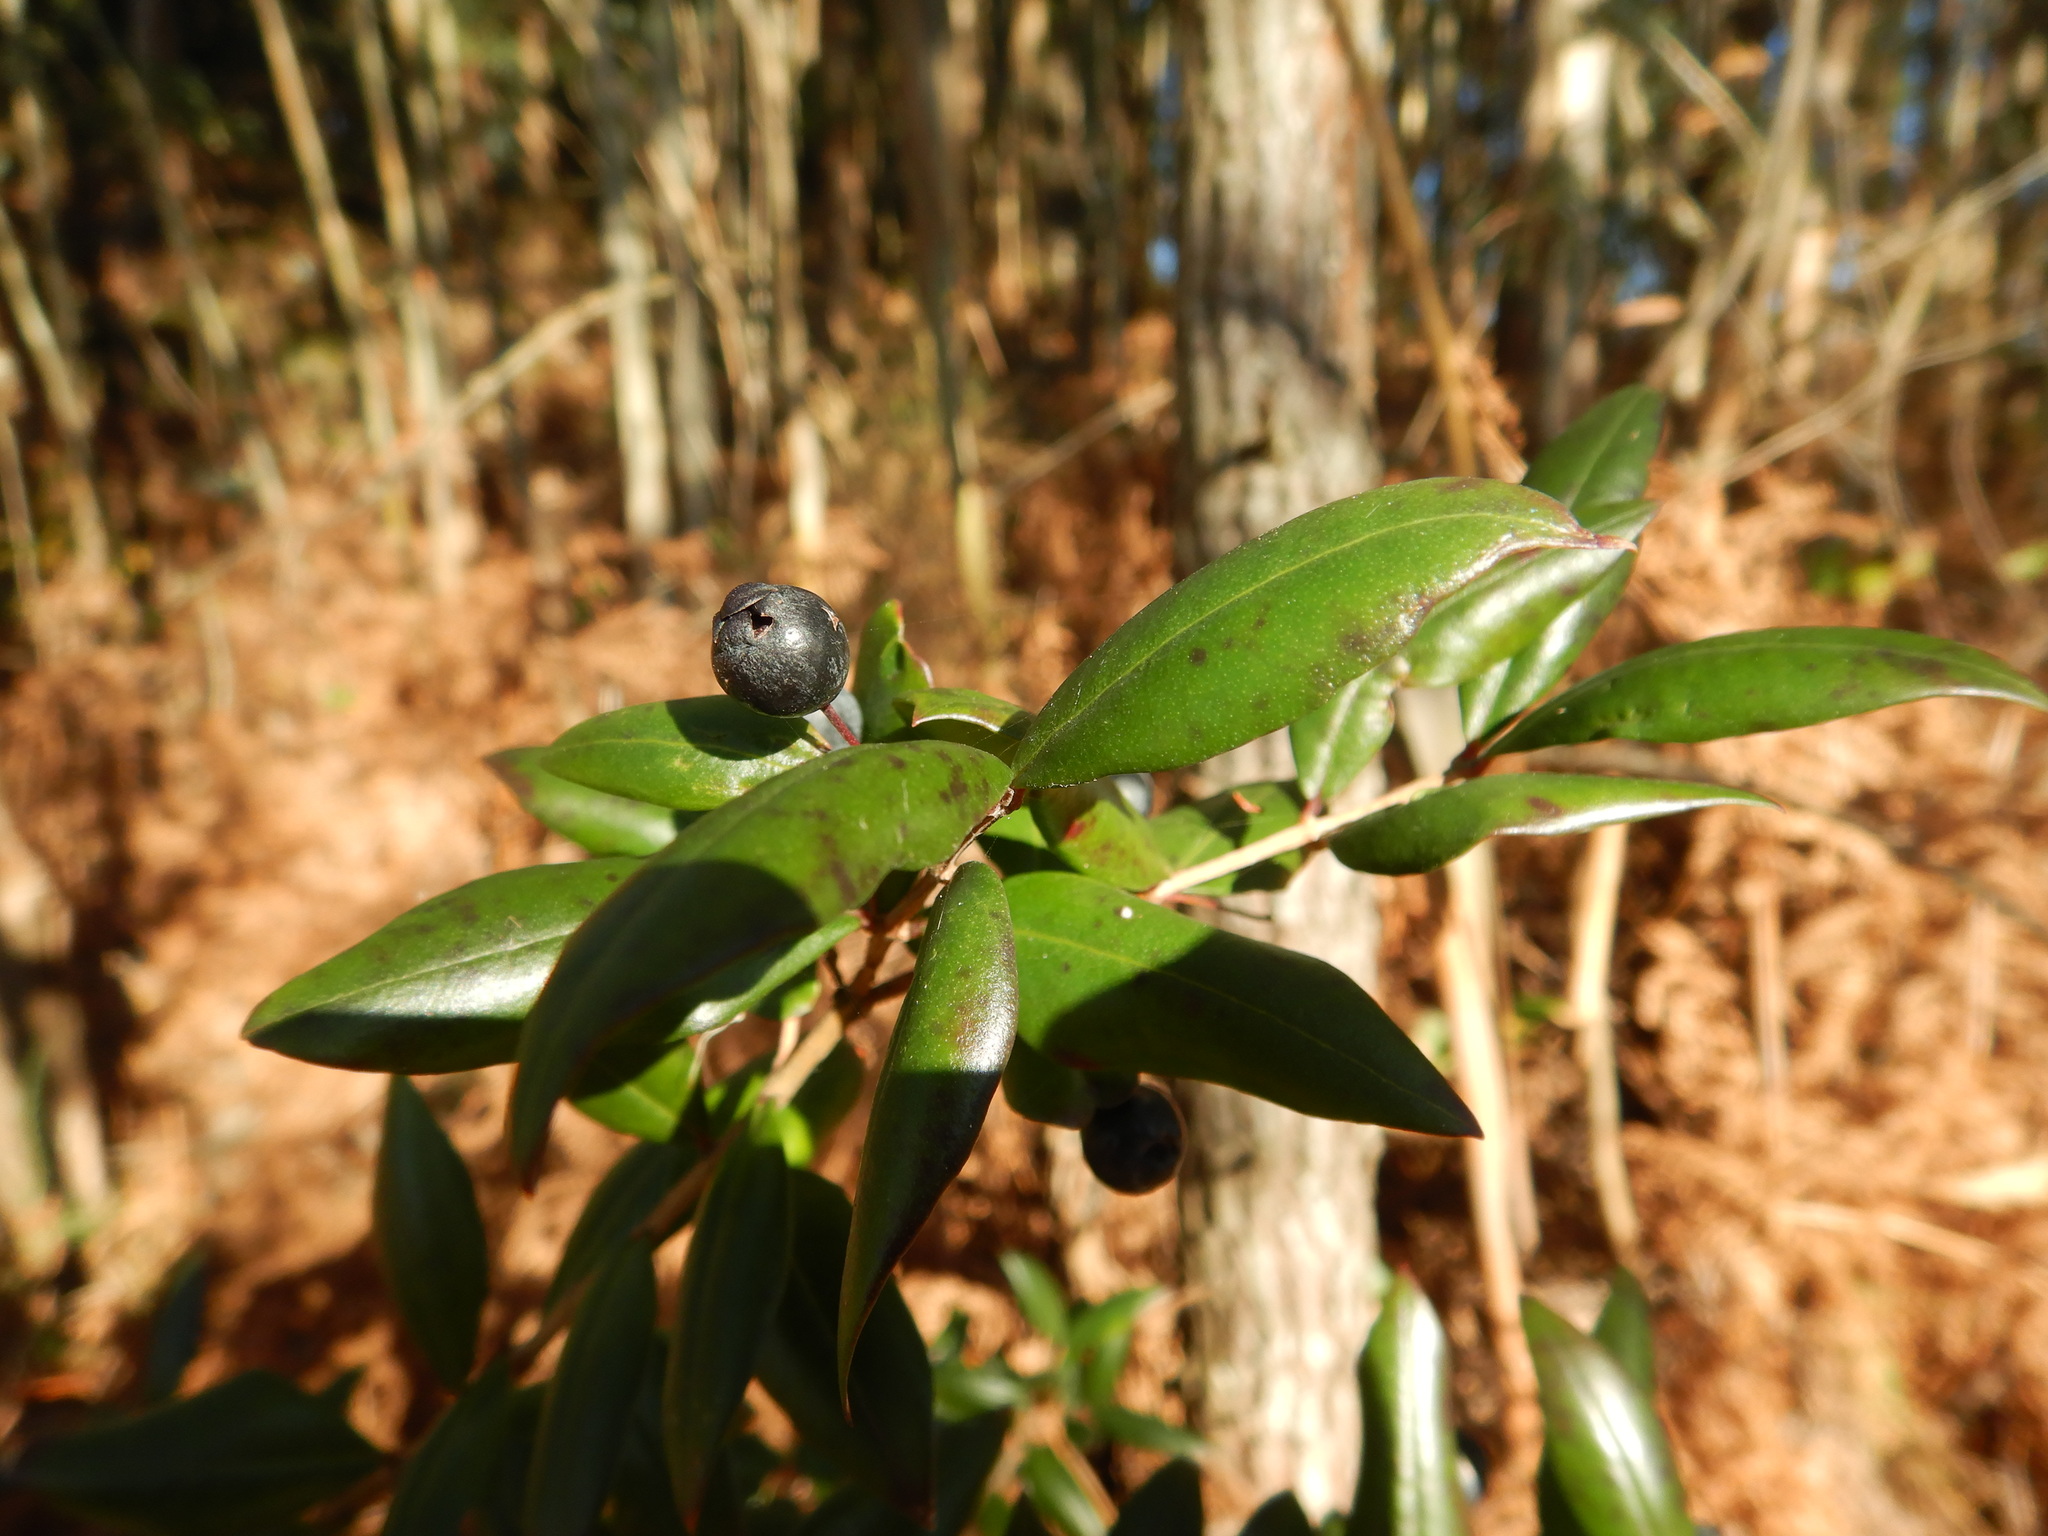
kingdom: Plantae
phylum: Tracheophyta
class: Magnoliopsida
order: Myrtales
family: Myrtaceae
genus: Myrtus
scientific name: Myrtus communis
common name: Myrtle
